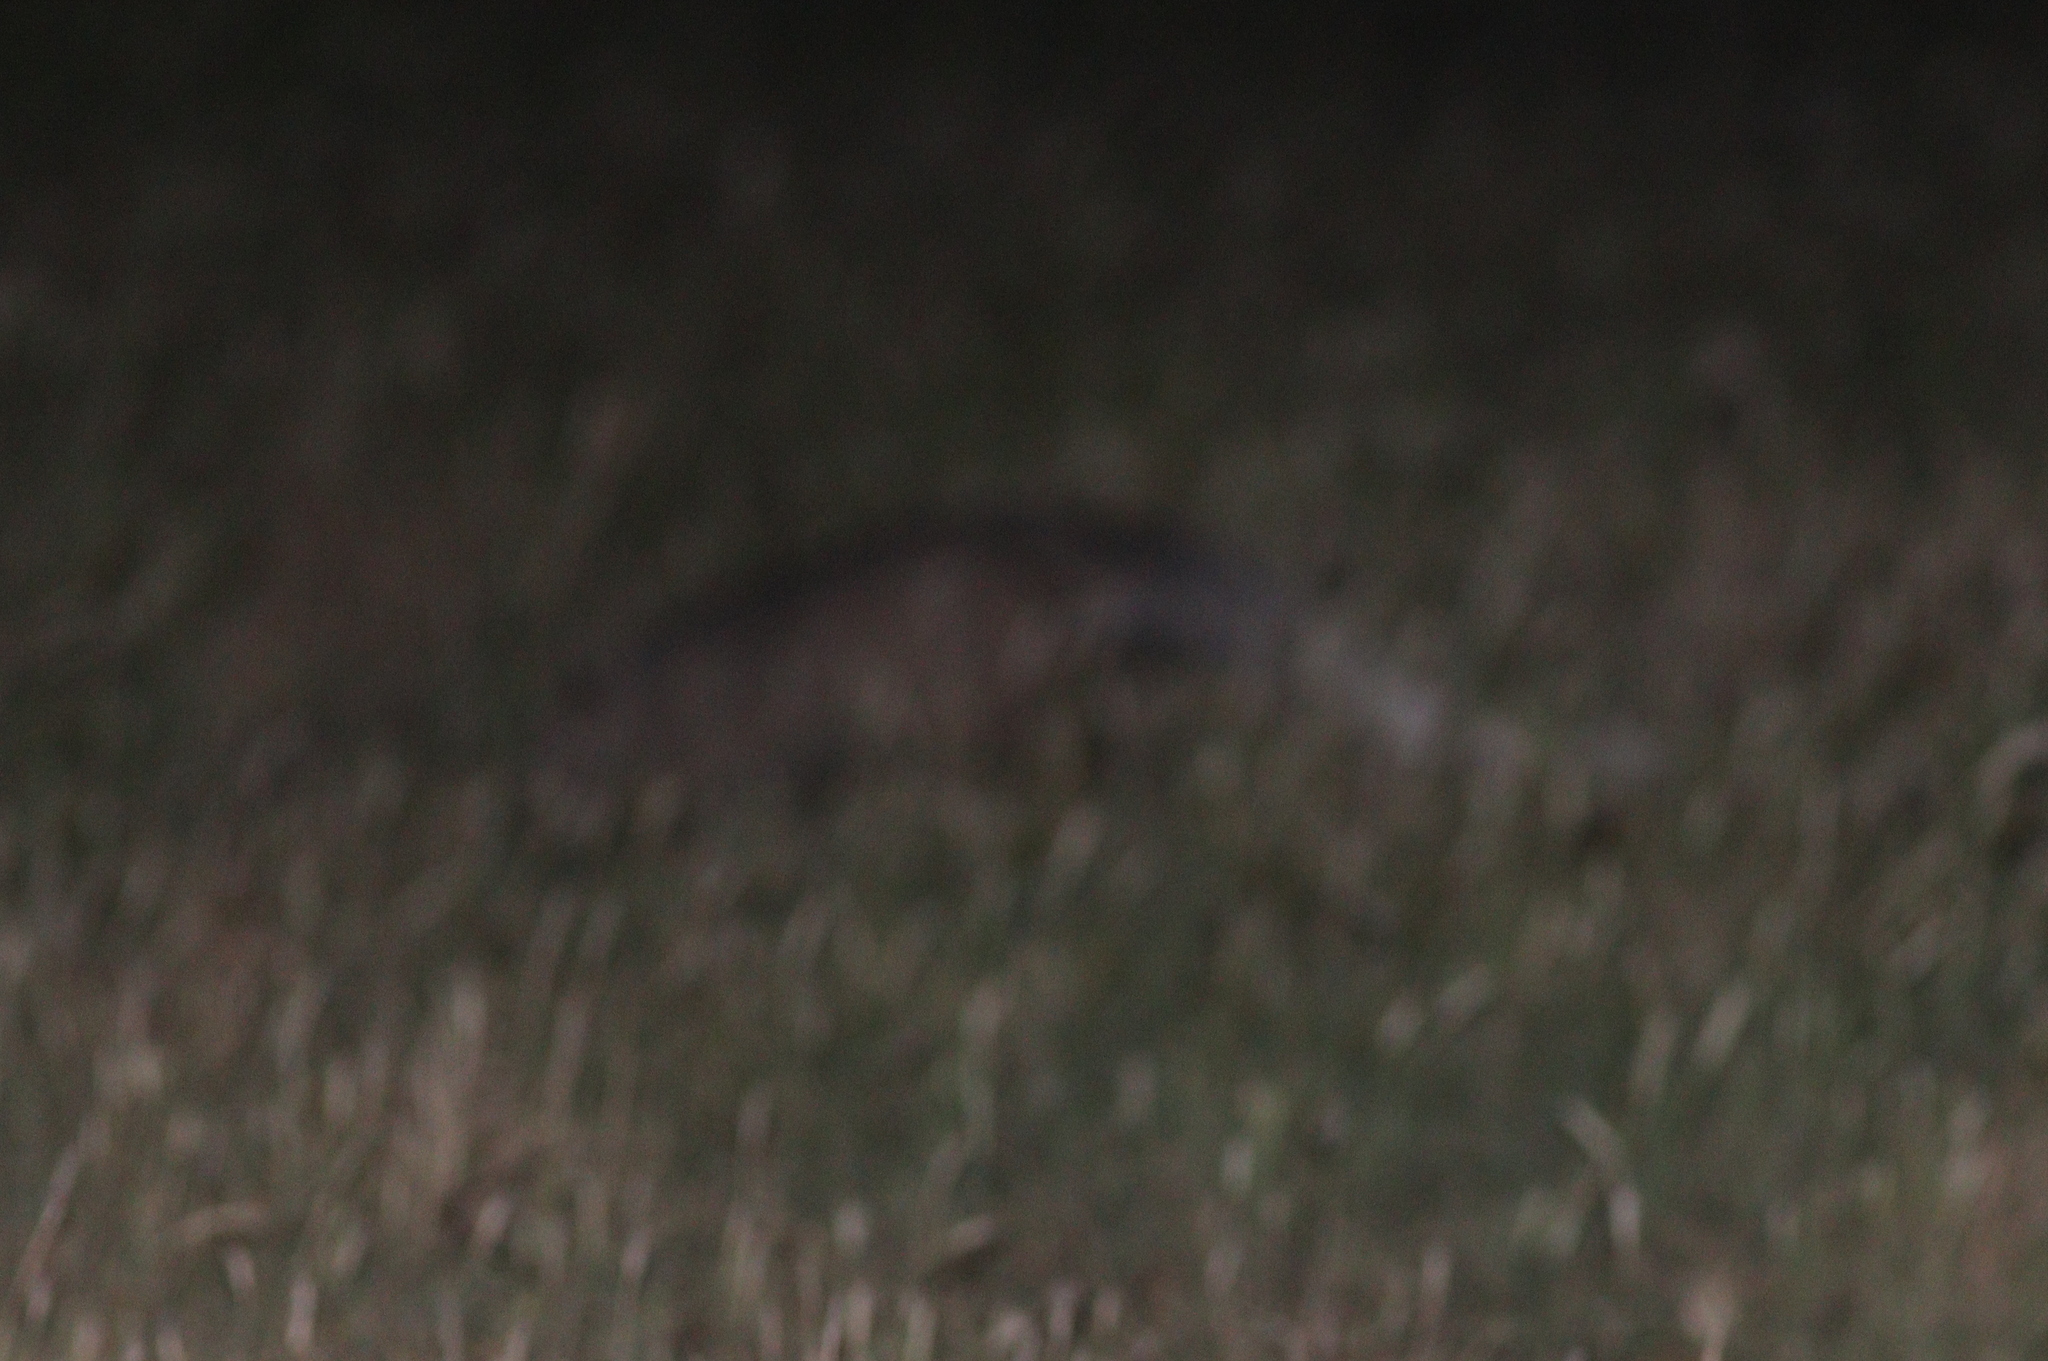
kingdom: Animalia
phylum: Chordata
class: Mammalia
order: Carnivora
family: Herpestidae
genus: Ichneumia
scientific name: Ichneumia albicauda
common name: White-tailed mongoose
